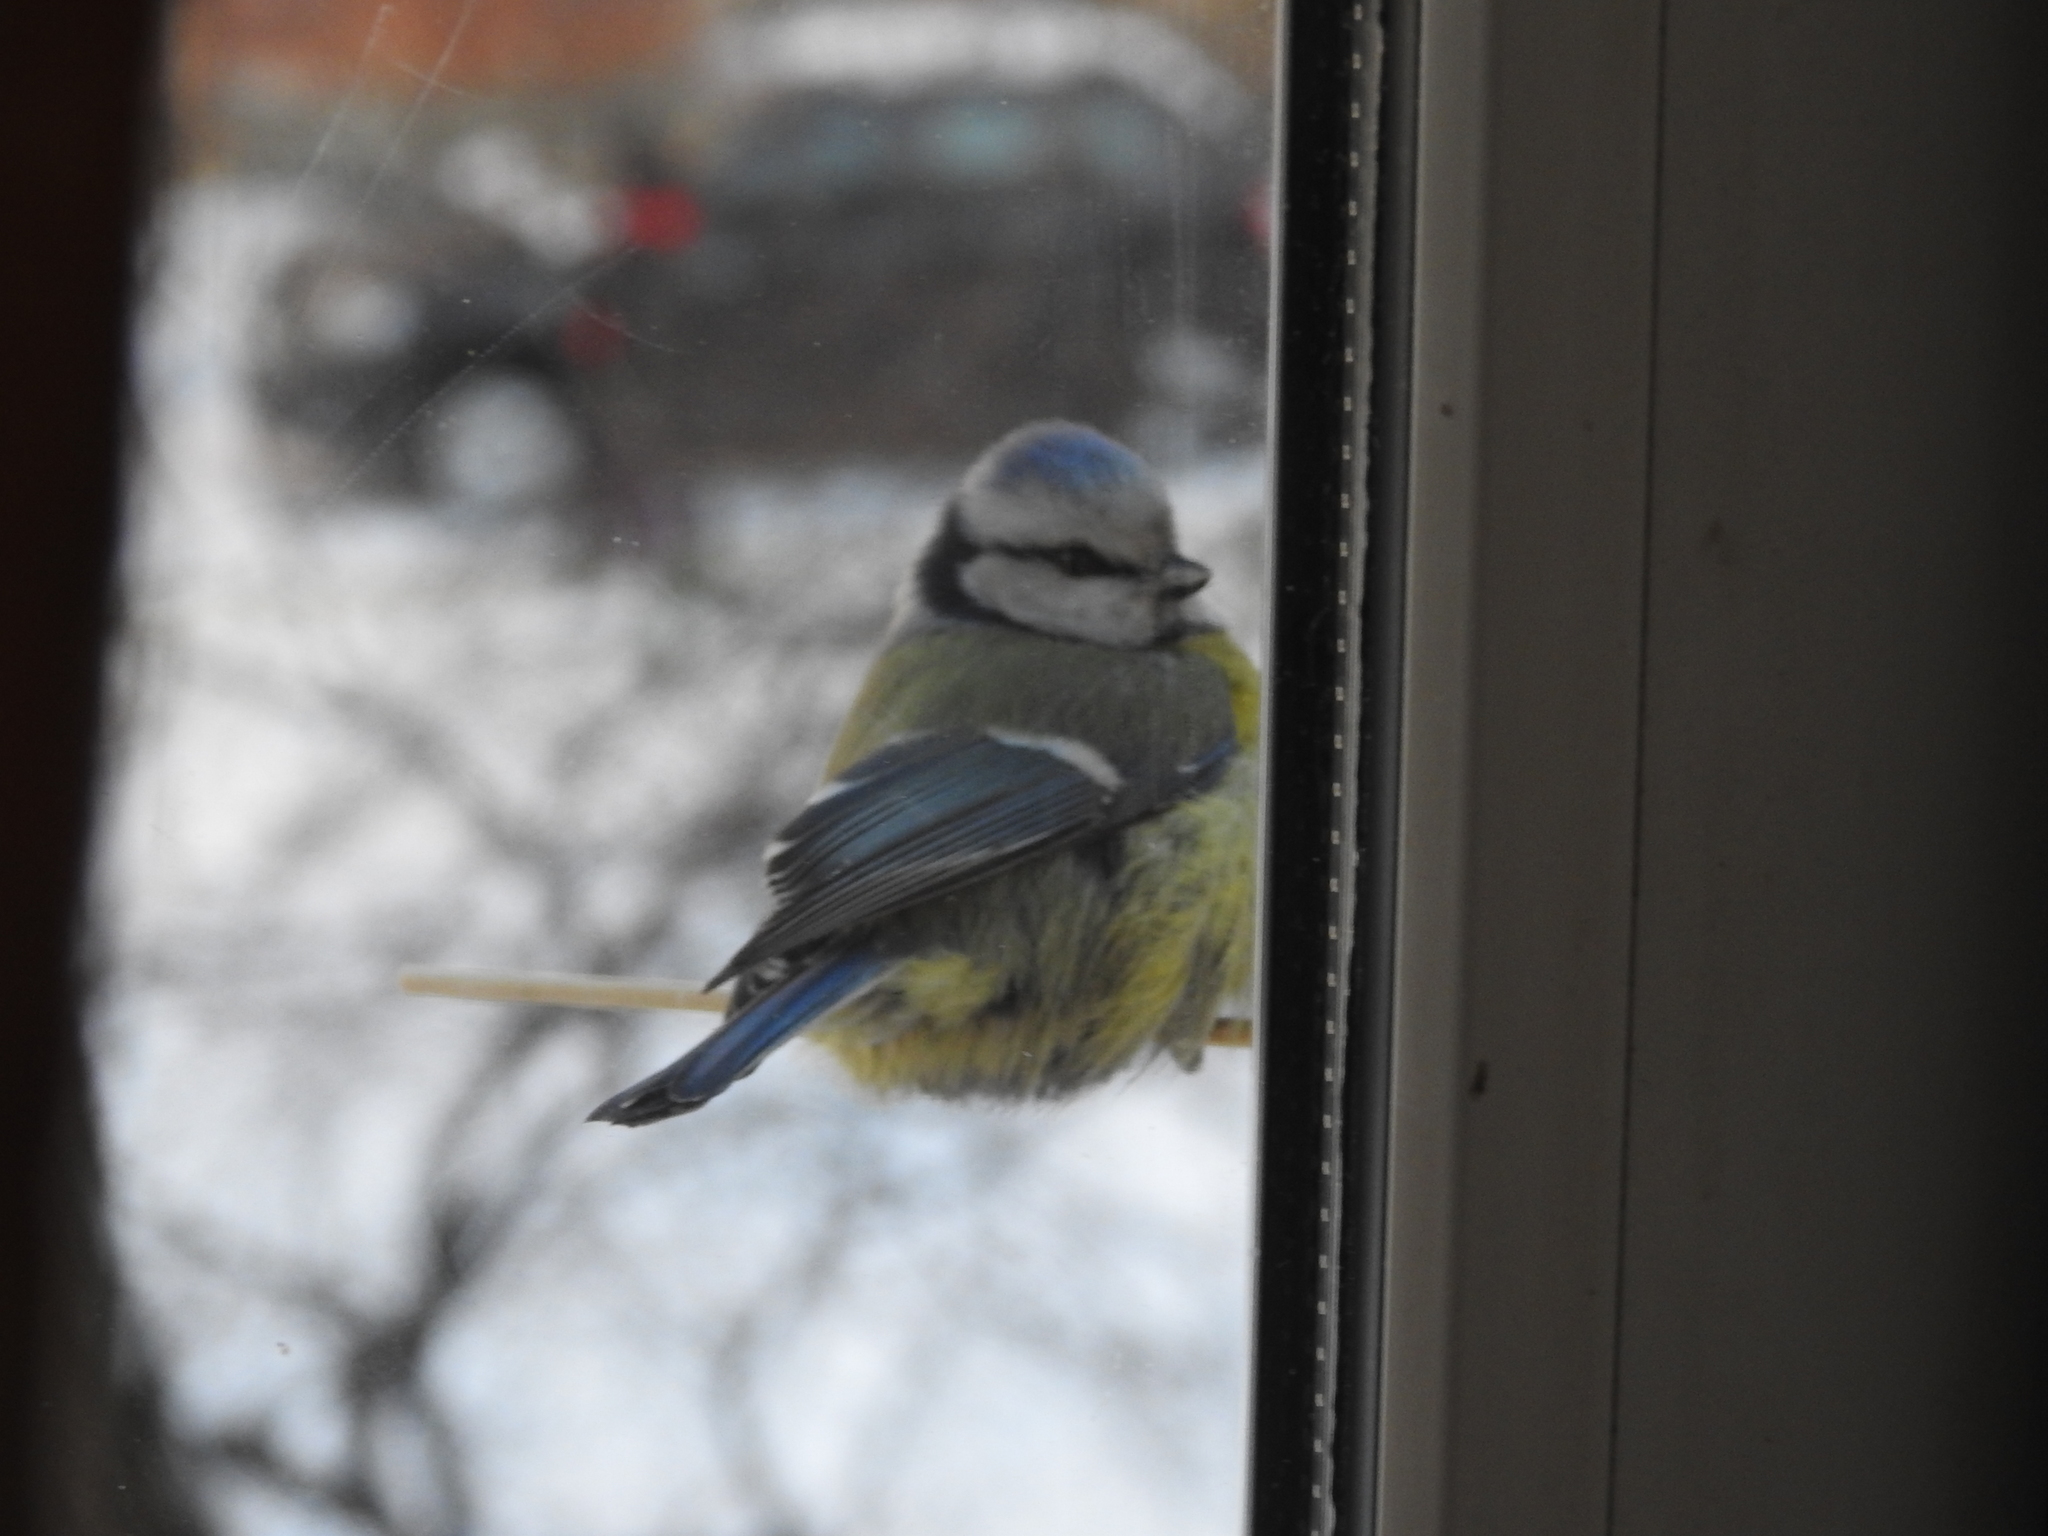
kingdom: Animalia
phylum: Chordata
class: Aves
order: Passeriformes
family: Paridae
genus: Cyanistes
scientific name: Cyanistes caeruleus
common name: Eurasian blue tit
